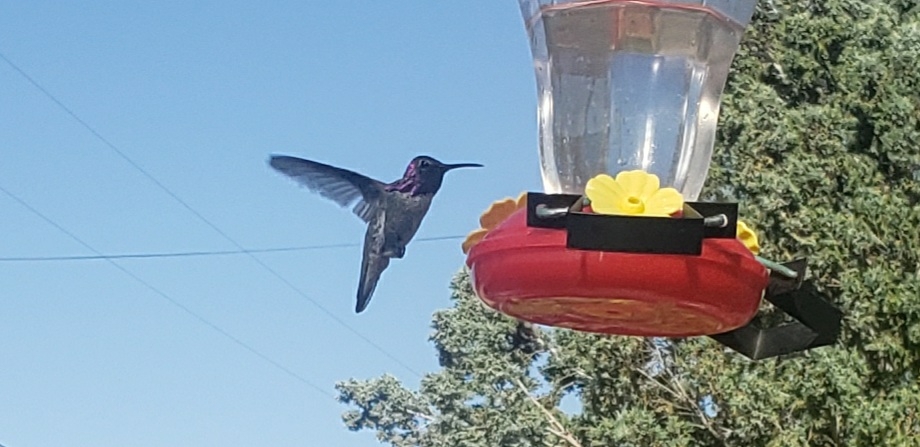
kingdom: Animalia
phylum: Chordata
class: Aves
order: Apodiformes
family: Trochilidae
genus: Calypte
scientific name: Calypte costae
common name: Costa's hummingbird
